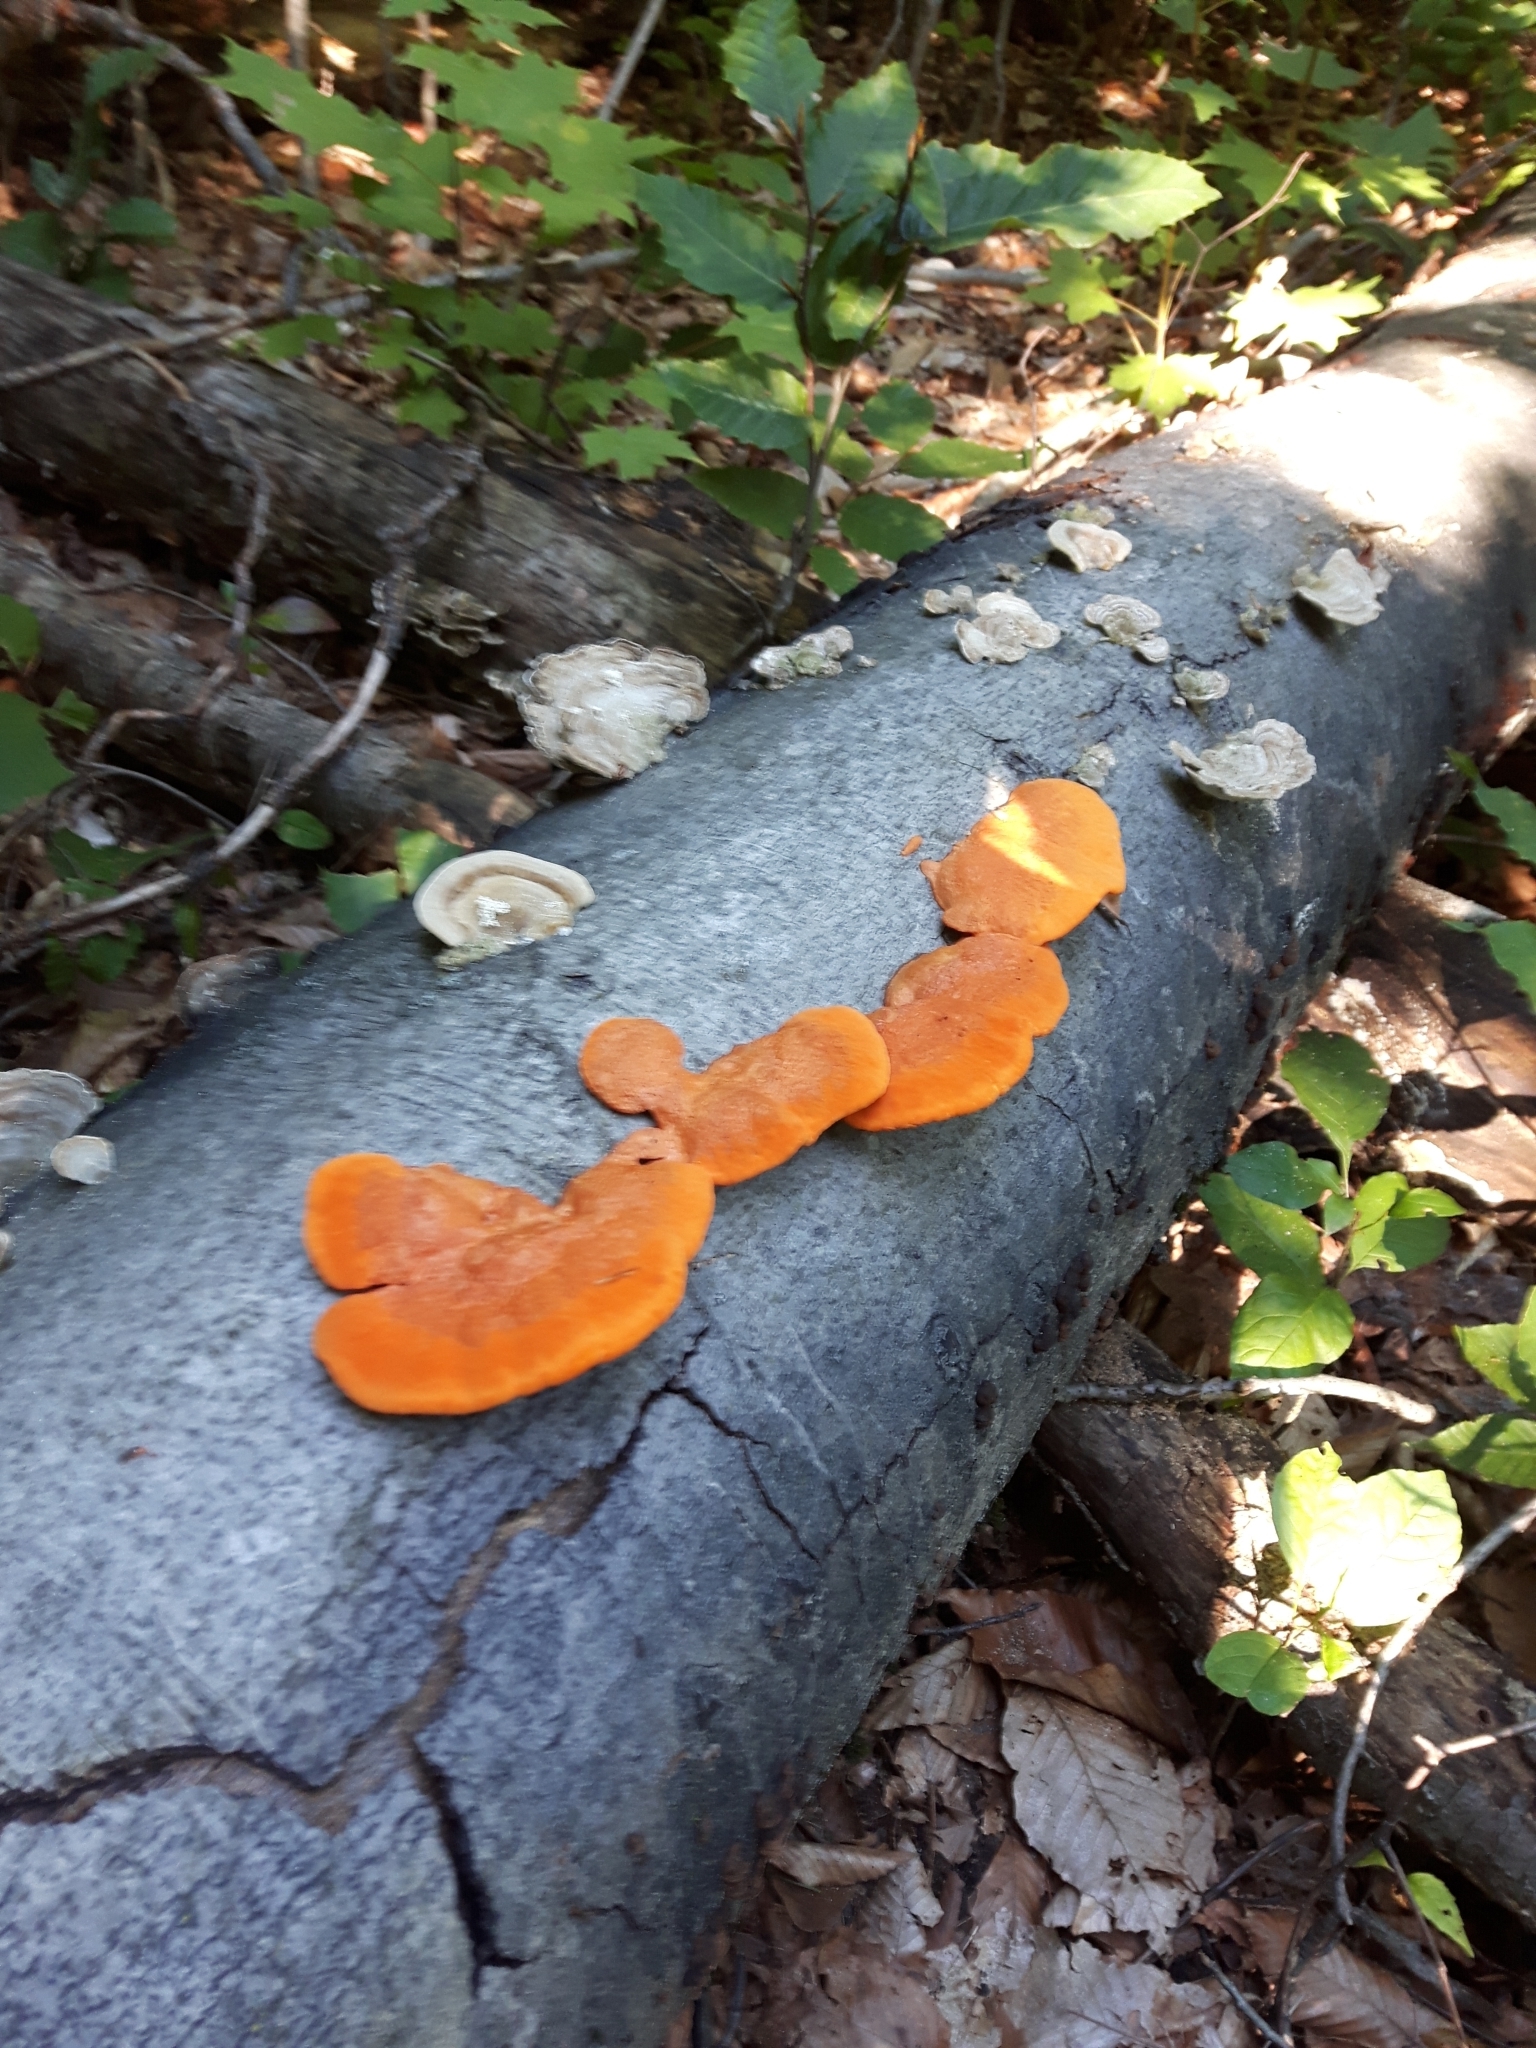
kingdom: Fungi
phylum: Basidiomycota
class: Agaricomycetes
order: Polyporales
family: Polyporaceae
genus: Trametes
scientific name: Trametes cinnabarina
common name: Northern cinnabar polypore
